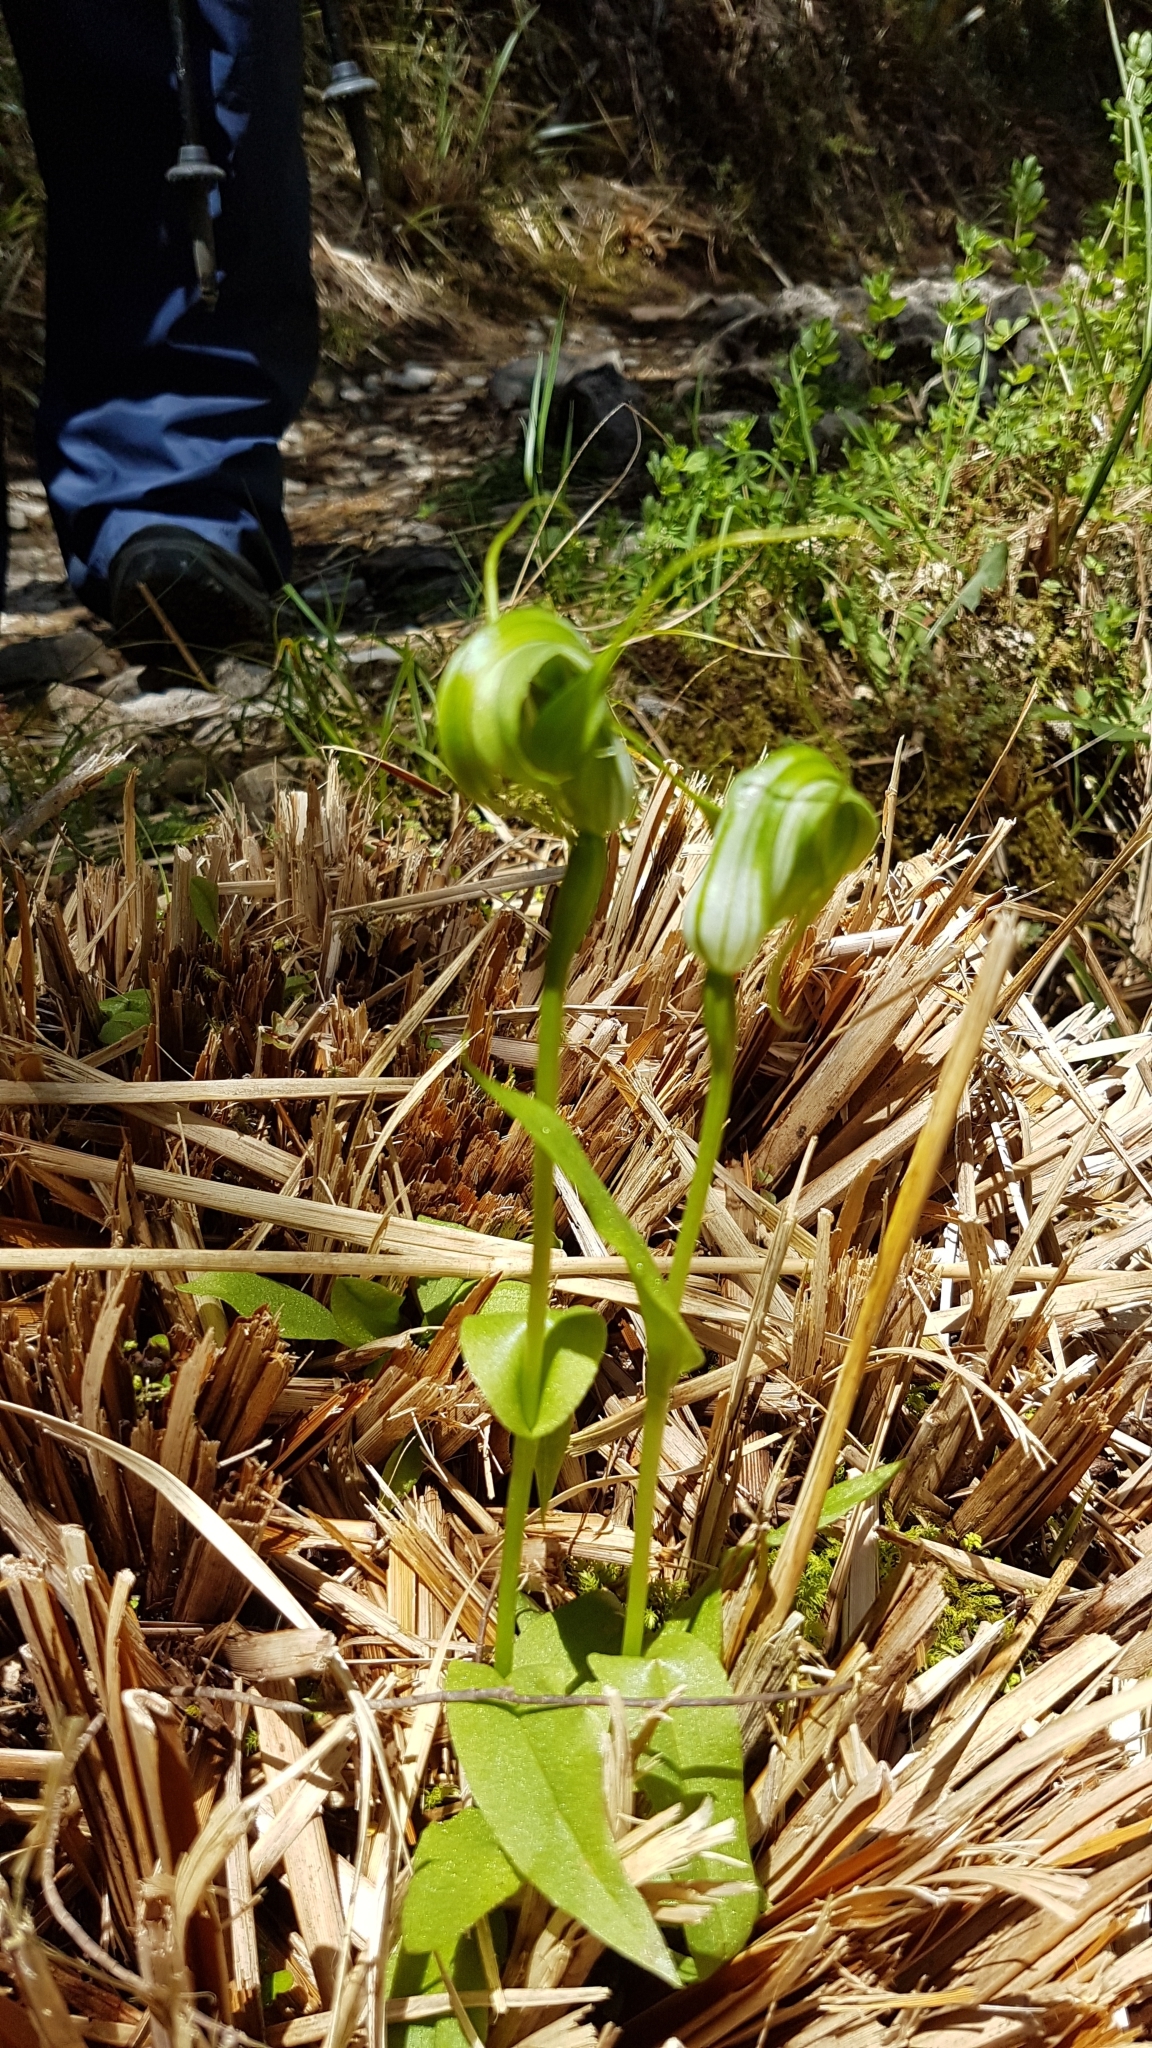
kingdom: Plantae
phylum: Tracheophyta
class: Liliopsida
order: Asparagales
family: Orchidaceae
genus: Pterostylis
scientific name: Pterostylis oliveri
